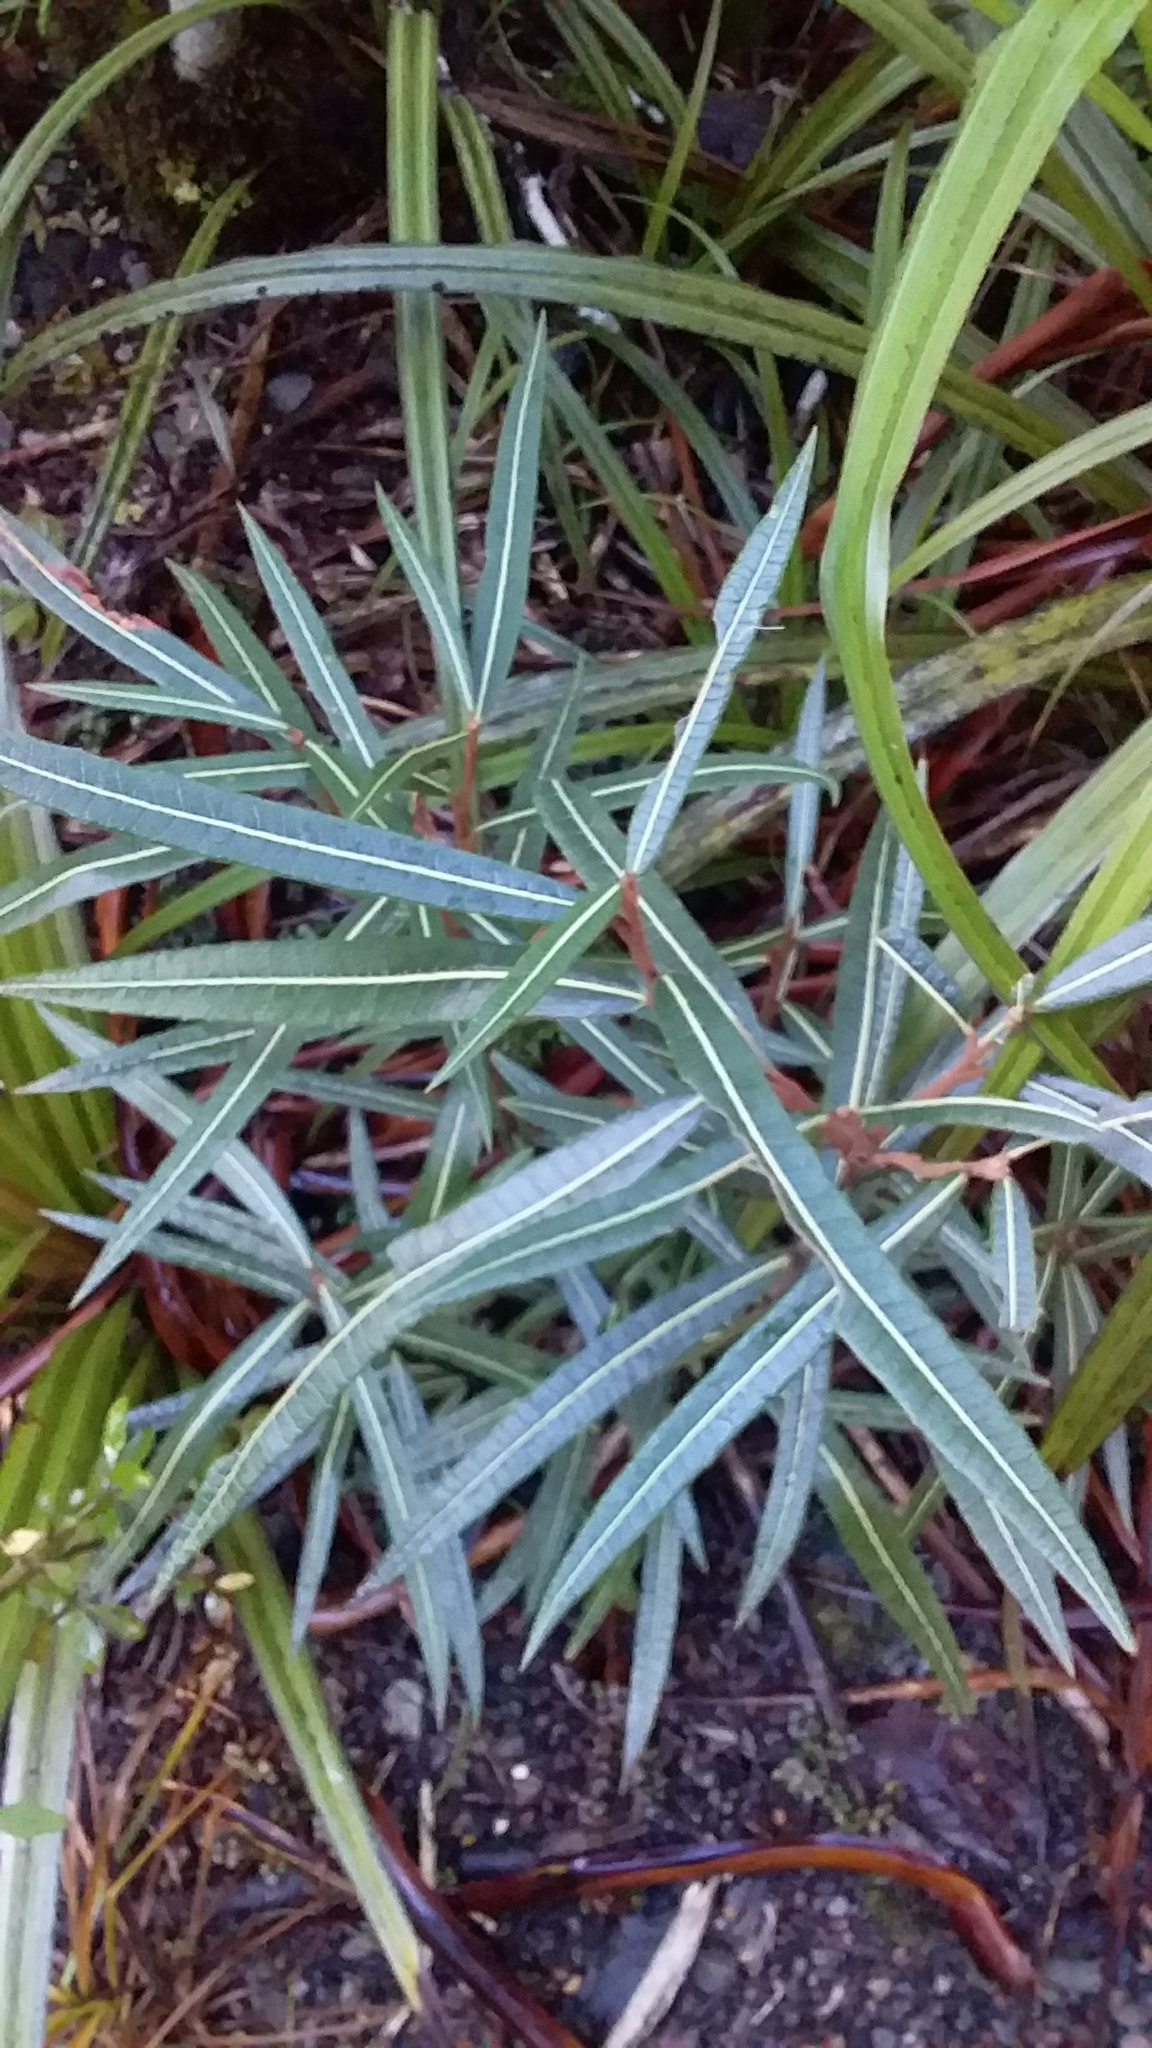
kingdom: Plantae
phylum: Tracheophyta
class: Magnoliopsida
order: Asterales
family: Asteraceae
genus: Olearia
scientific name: Olearia lacunosa
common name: Lancewood tree daisy
